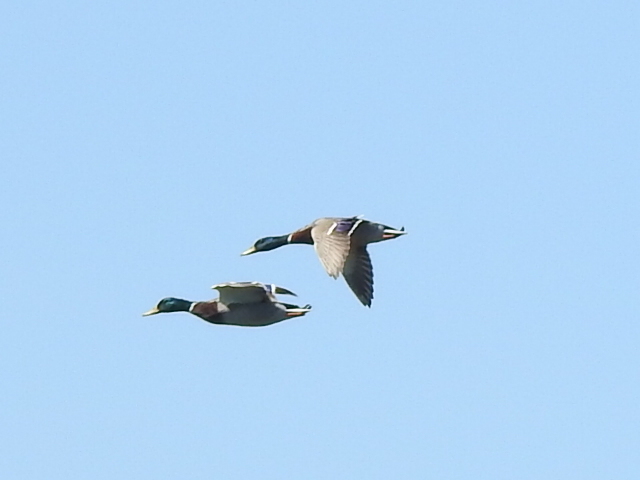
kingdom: Animalia
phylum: Chordata
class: Aves
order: Anseriformes
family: Anatidae
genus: Anas
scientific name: Anas platyrhynchos
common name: Mallard
